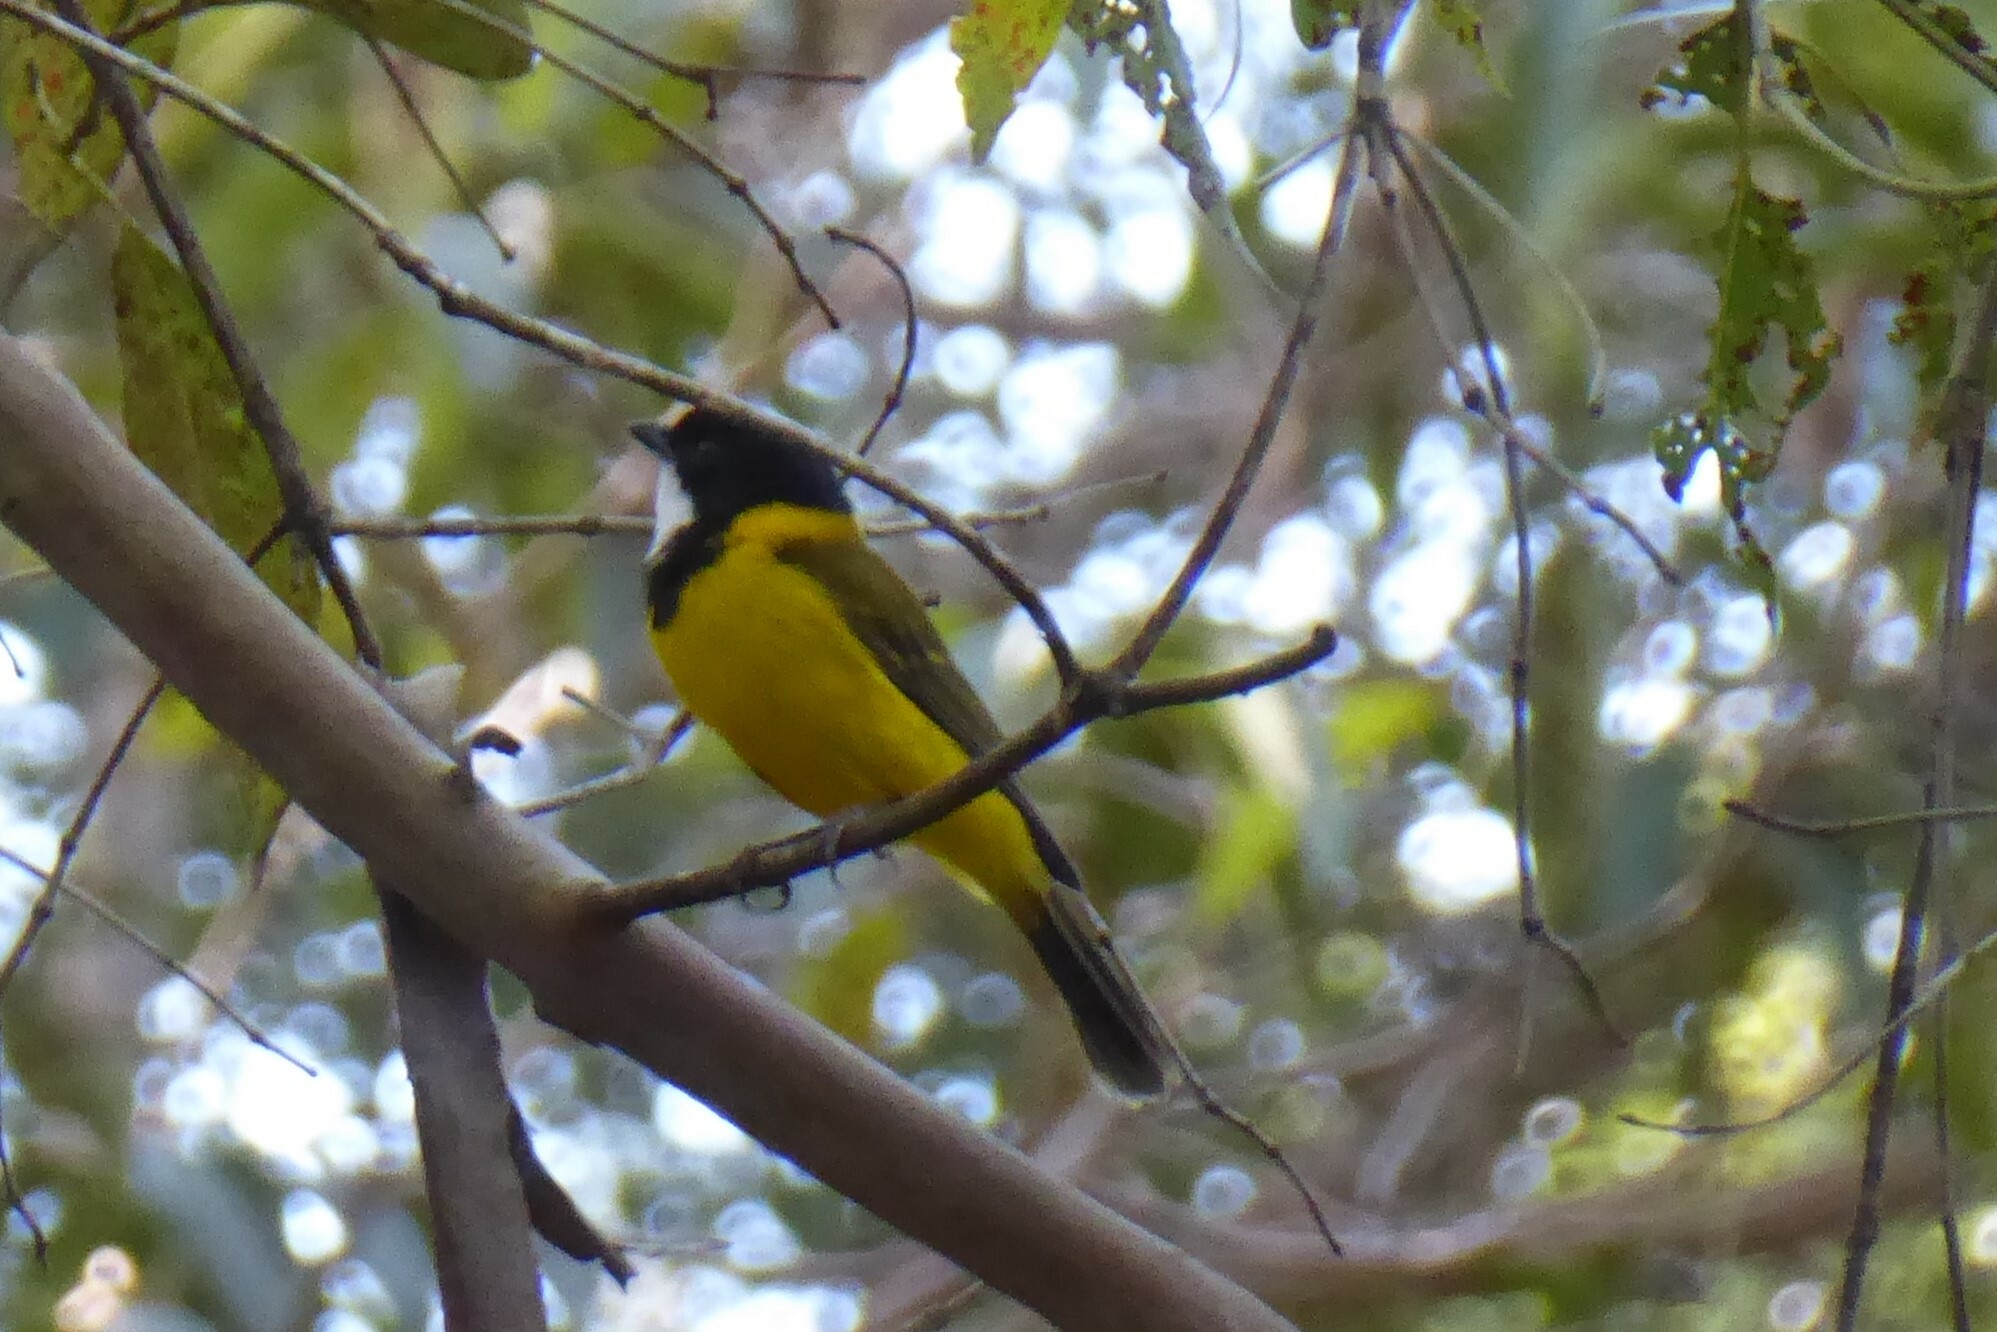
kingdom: Animalia
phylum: Chordata
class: Aves
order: Passeriformes
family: Pachycephalidae
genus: Pachycephala
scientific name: Pachycephala pectoralis
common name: Australian golden whistler
